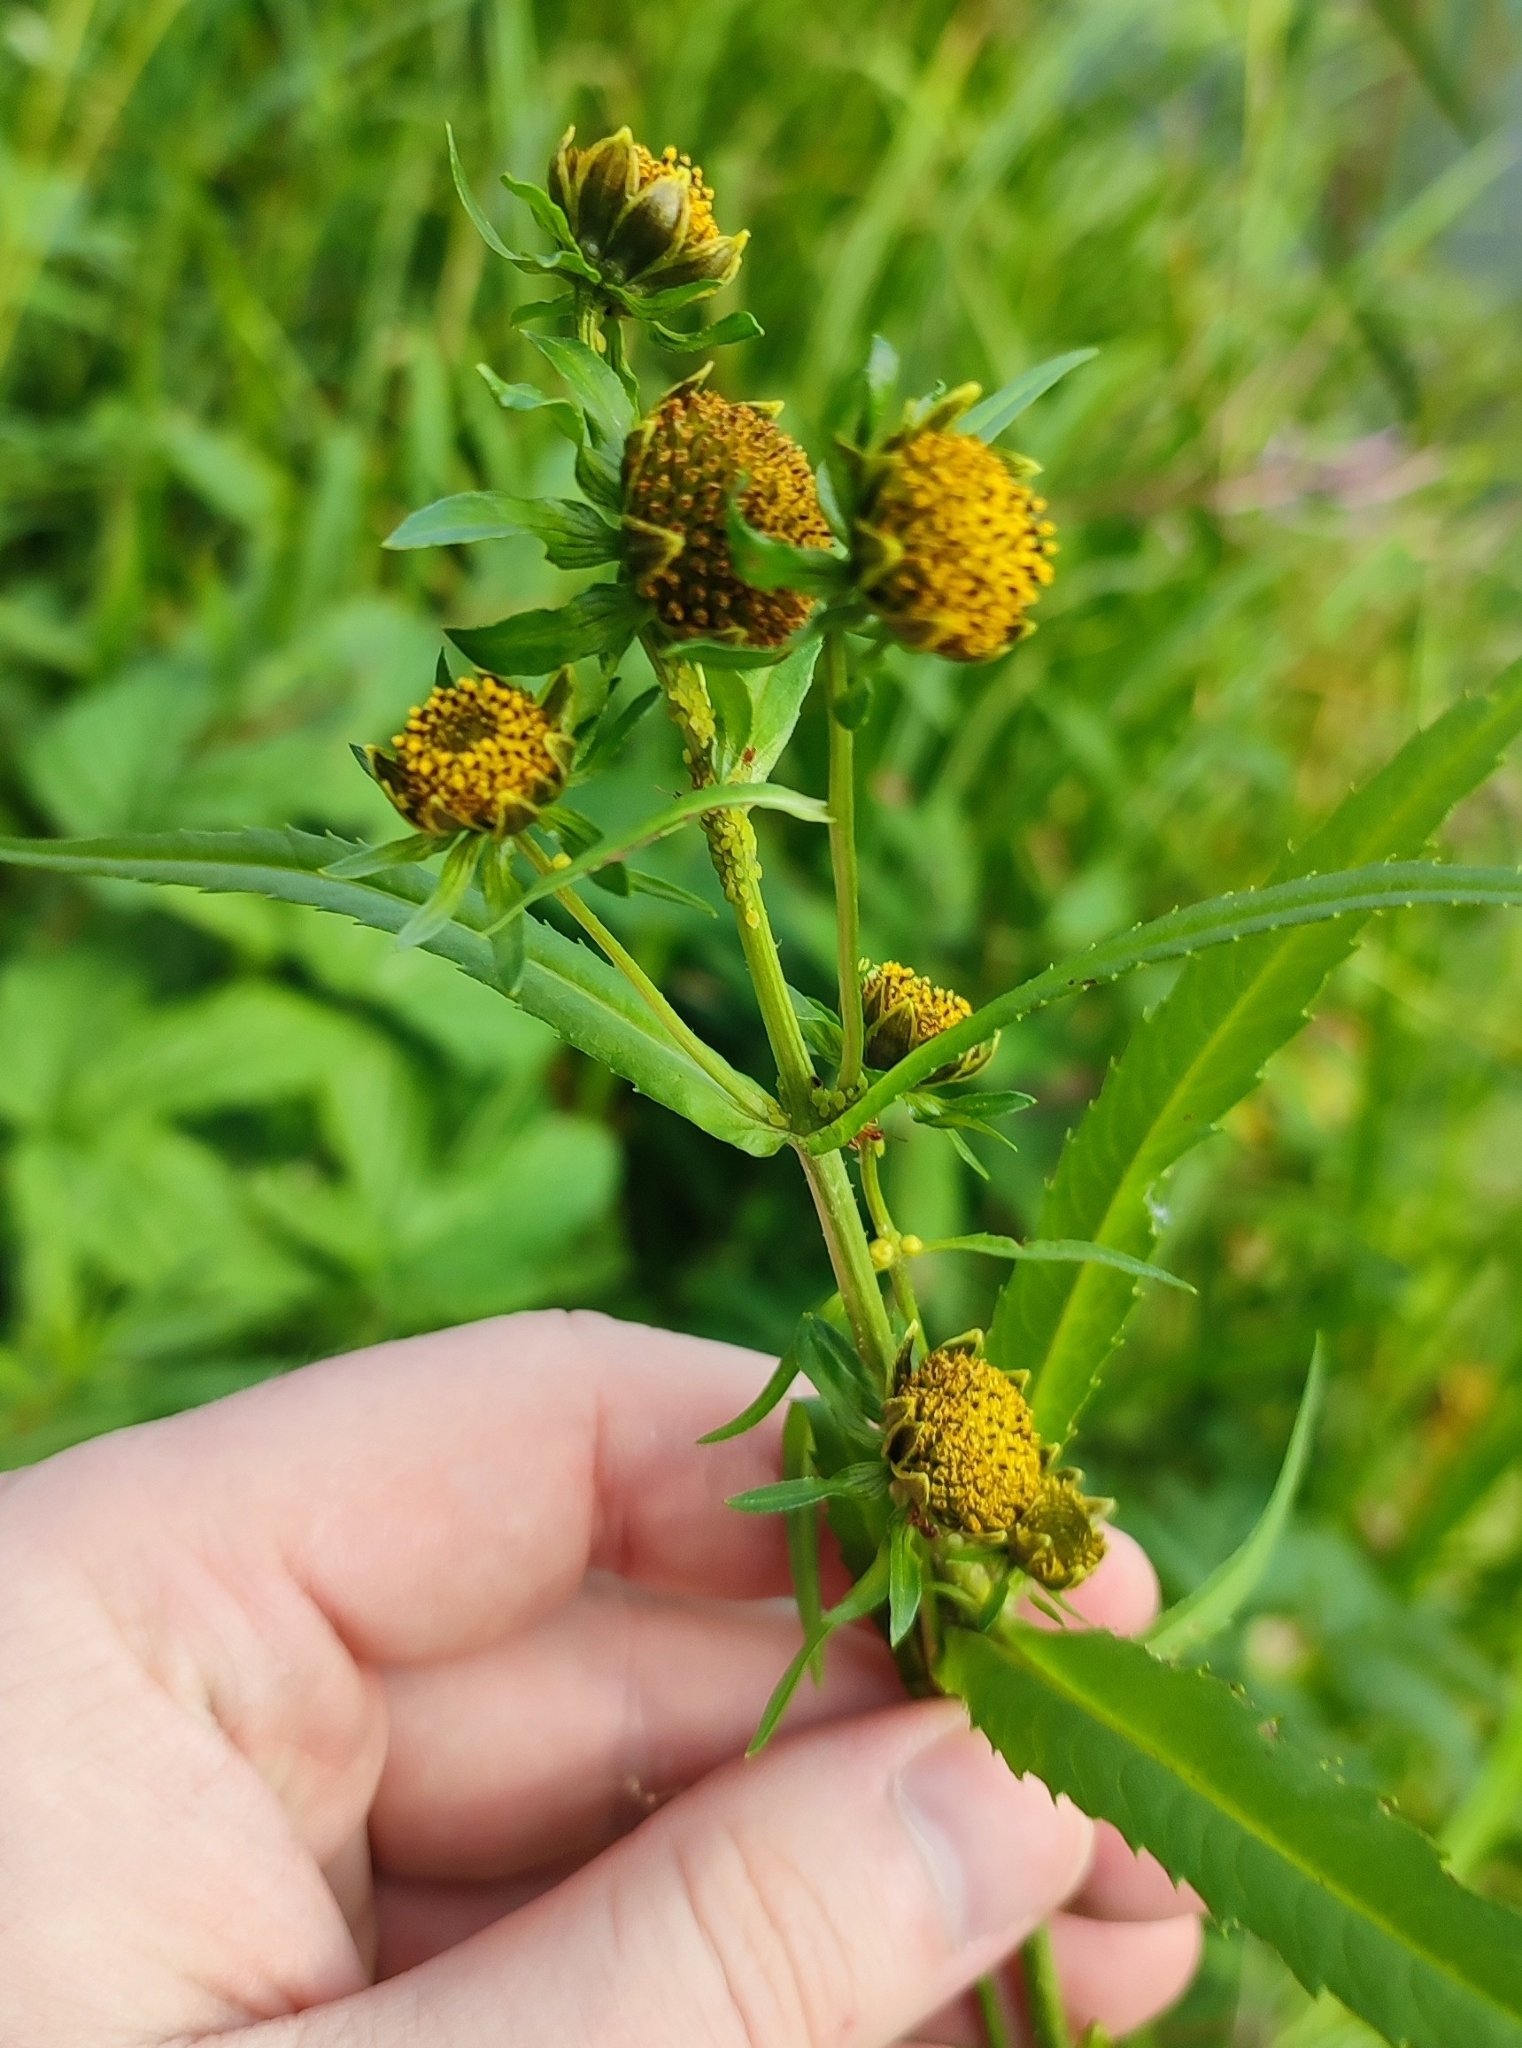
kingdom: Plantae
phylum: Tracheophyta
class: Magnoliopsida
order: Asterales
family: Asteraceae
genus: Bidens
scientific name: Bidens cernua
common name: Nodding bur-marigold
